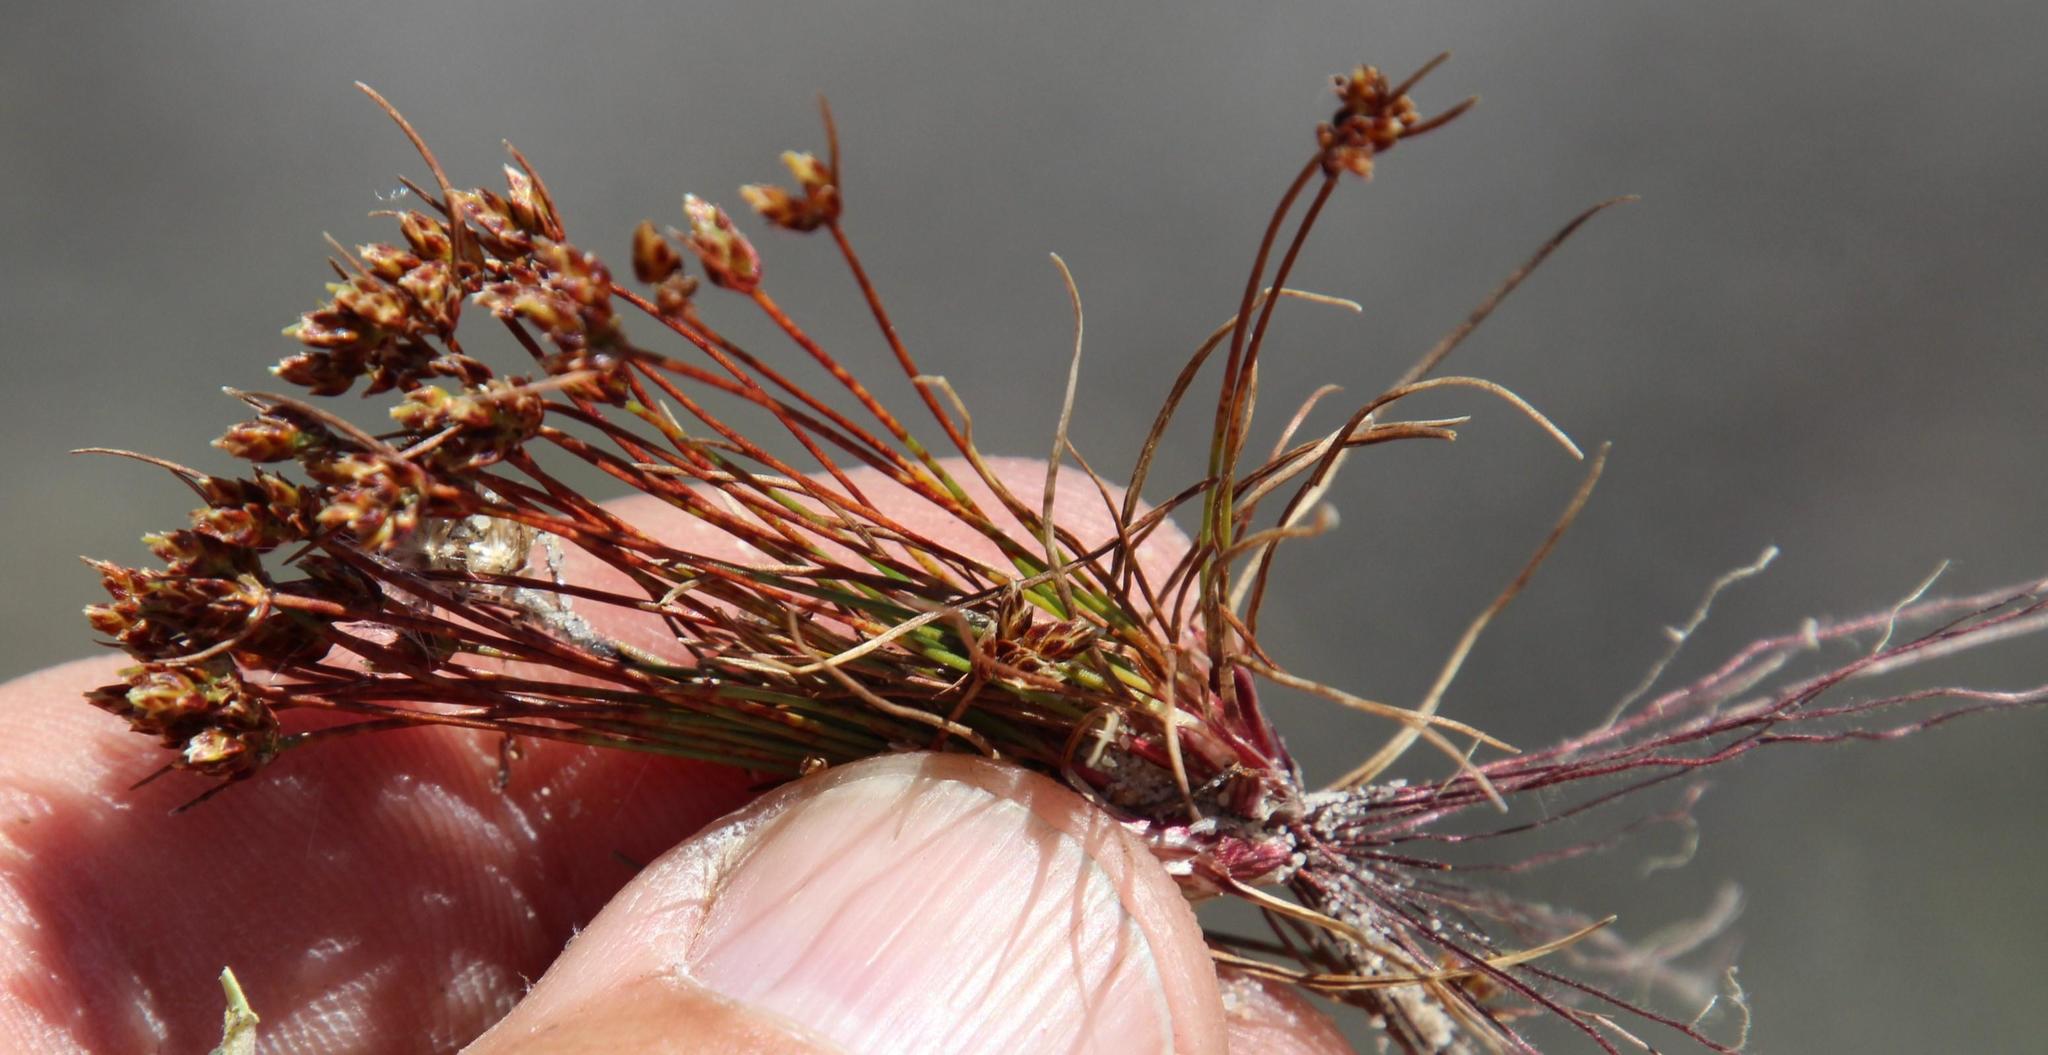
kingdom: Plantae
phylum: Tracheophyta
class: Liliopsida
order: Poales
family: Cyperaceae
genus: Isolepis
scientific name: Isolepis marginata
